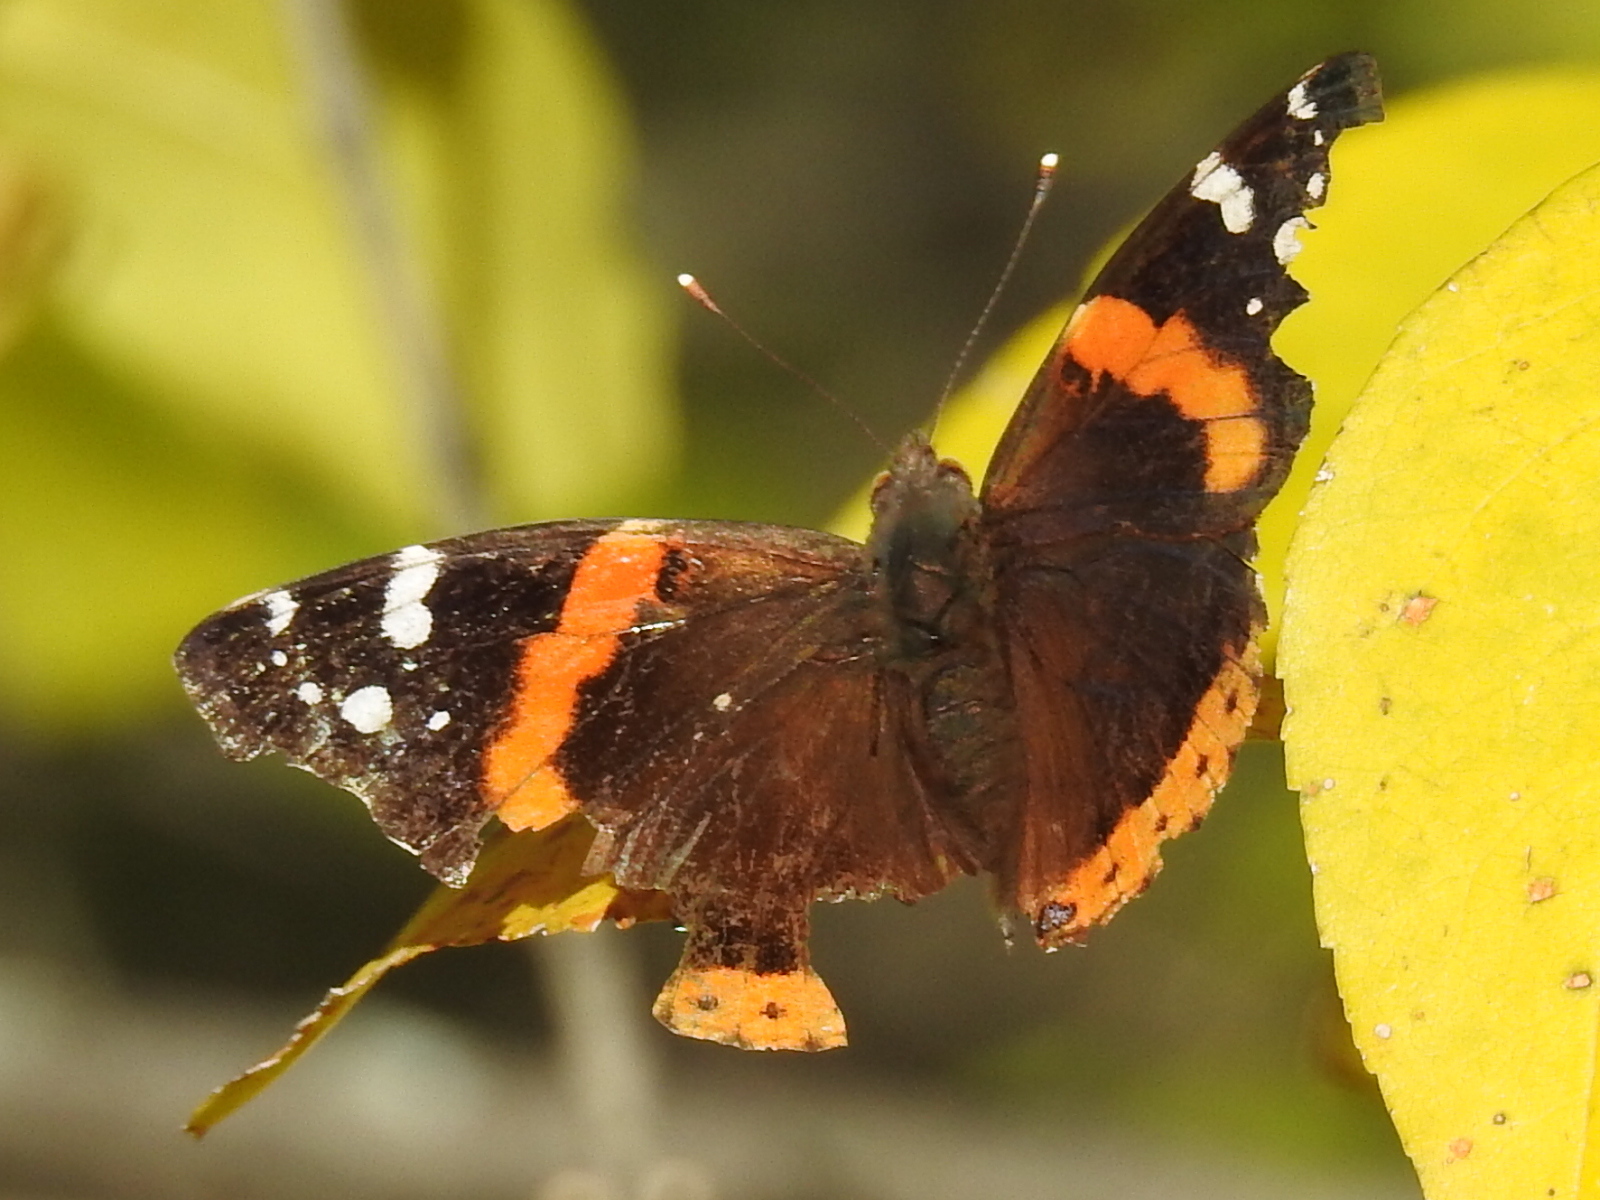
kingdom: Animalia
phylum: Arthropoda
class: Insecta
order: Lepidoptera
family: Nymphalidae
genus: Vanessa
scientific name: Vanessa atalanta
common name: Red admiral
